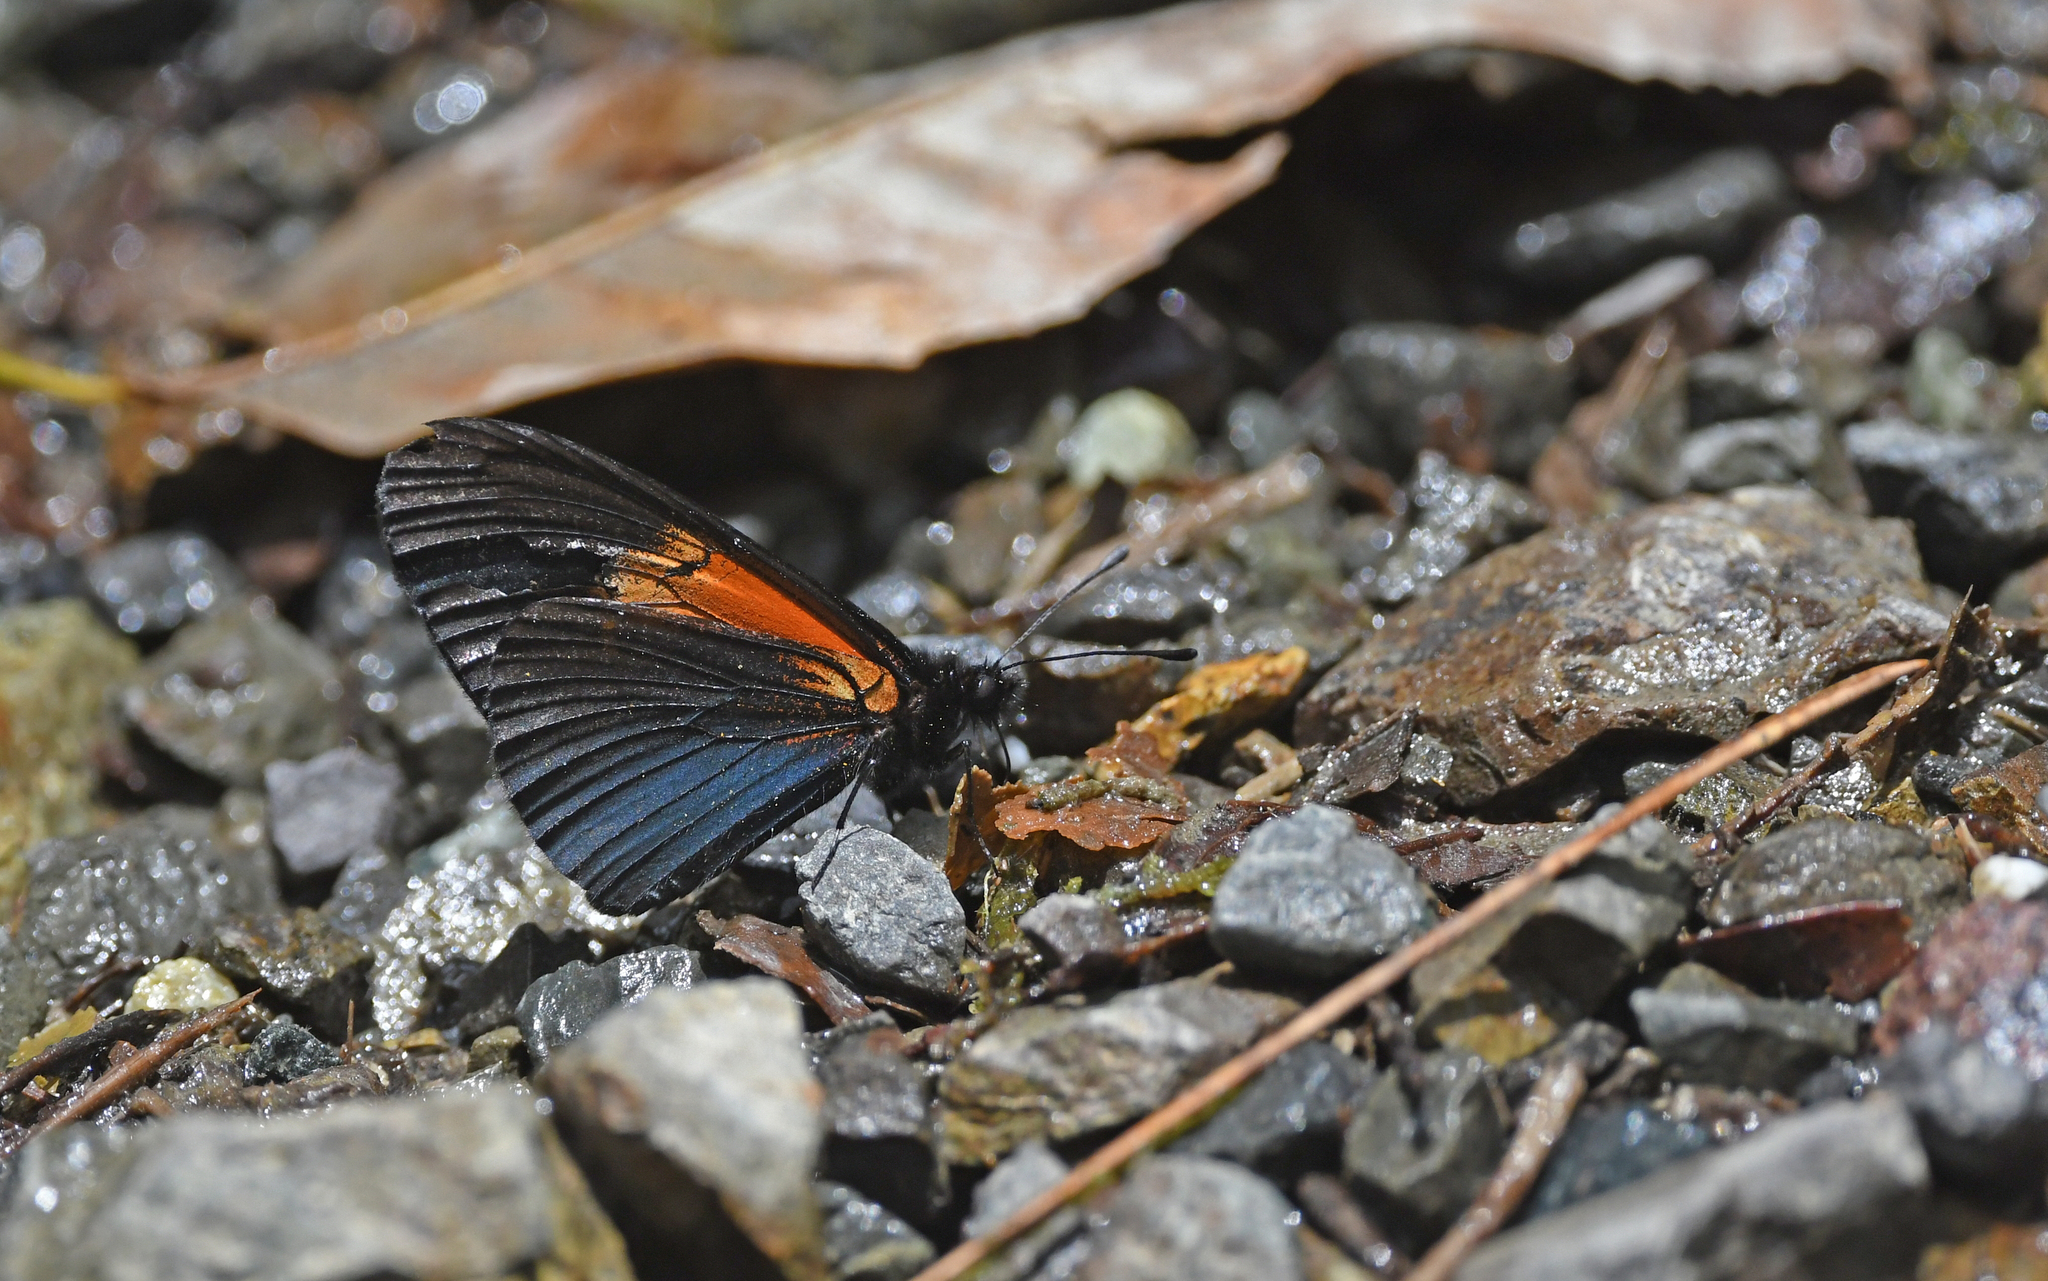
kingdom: Animalia
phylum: Arthropoda
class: Insecta
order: Lepidoptera
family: Nymphalidae
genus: Acraea
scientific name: Acraea Altinote ozomene
